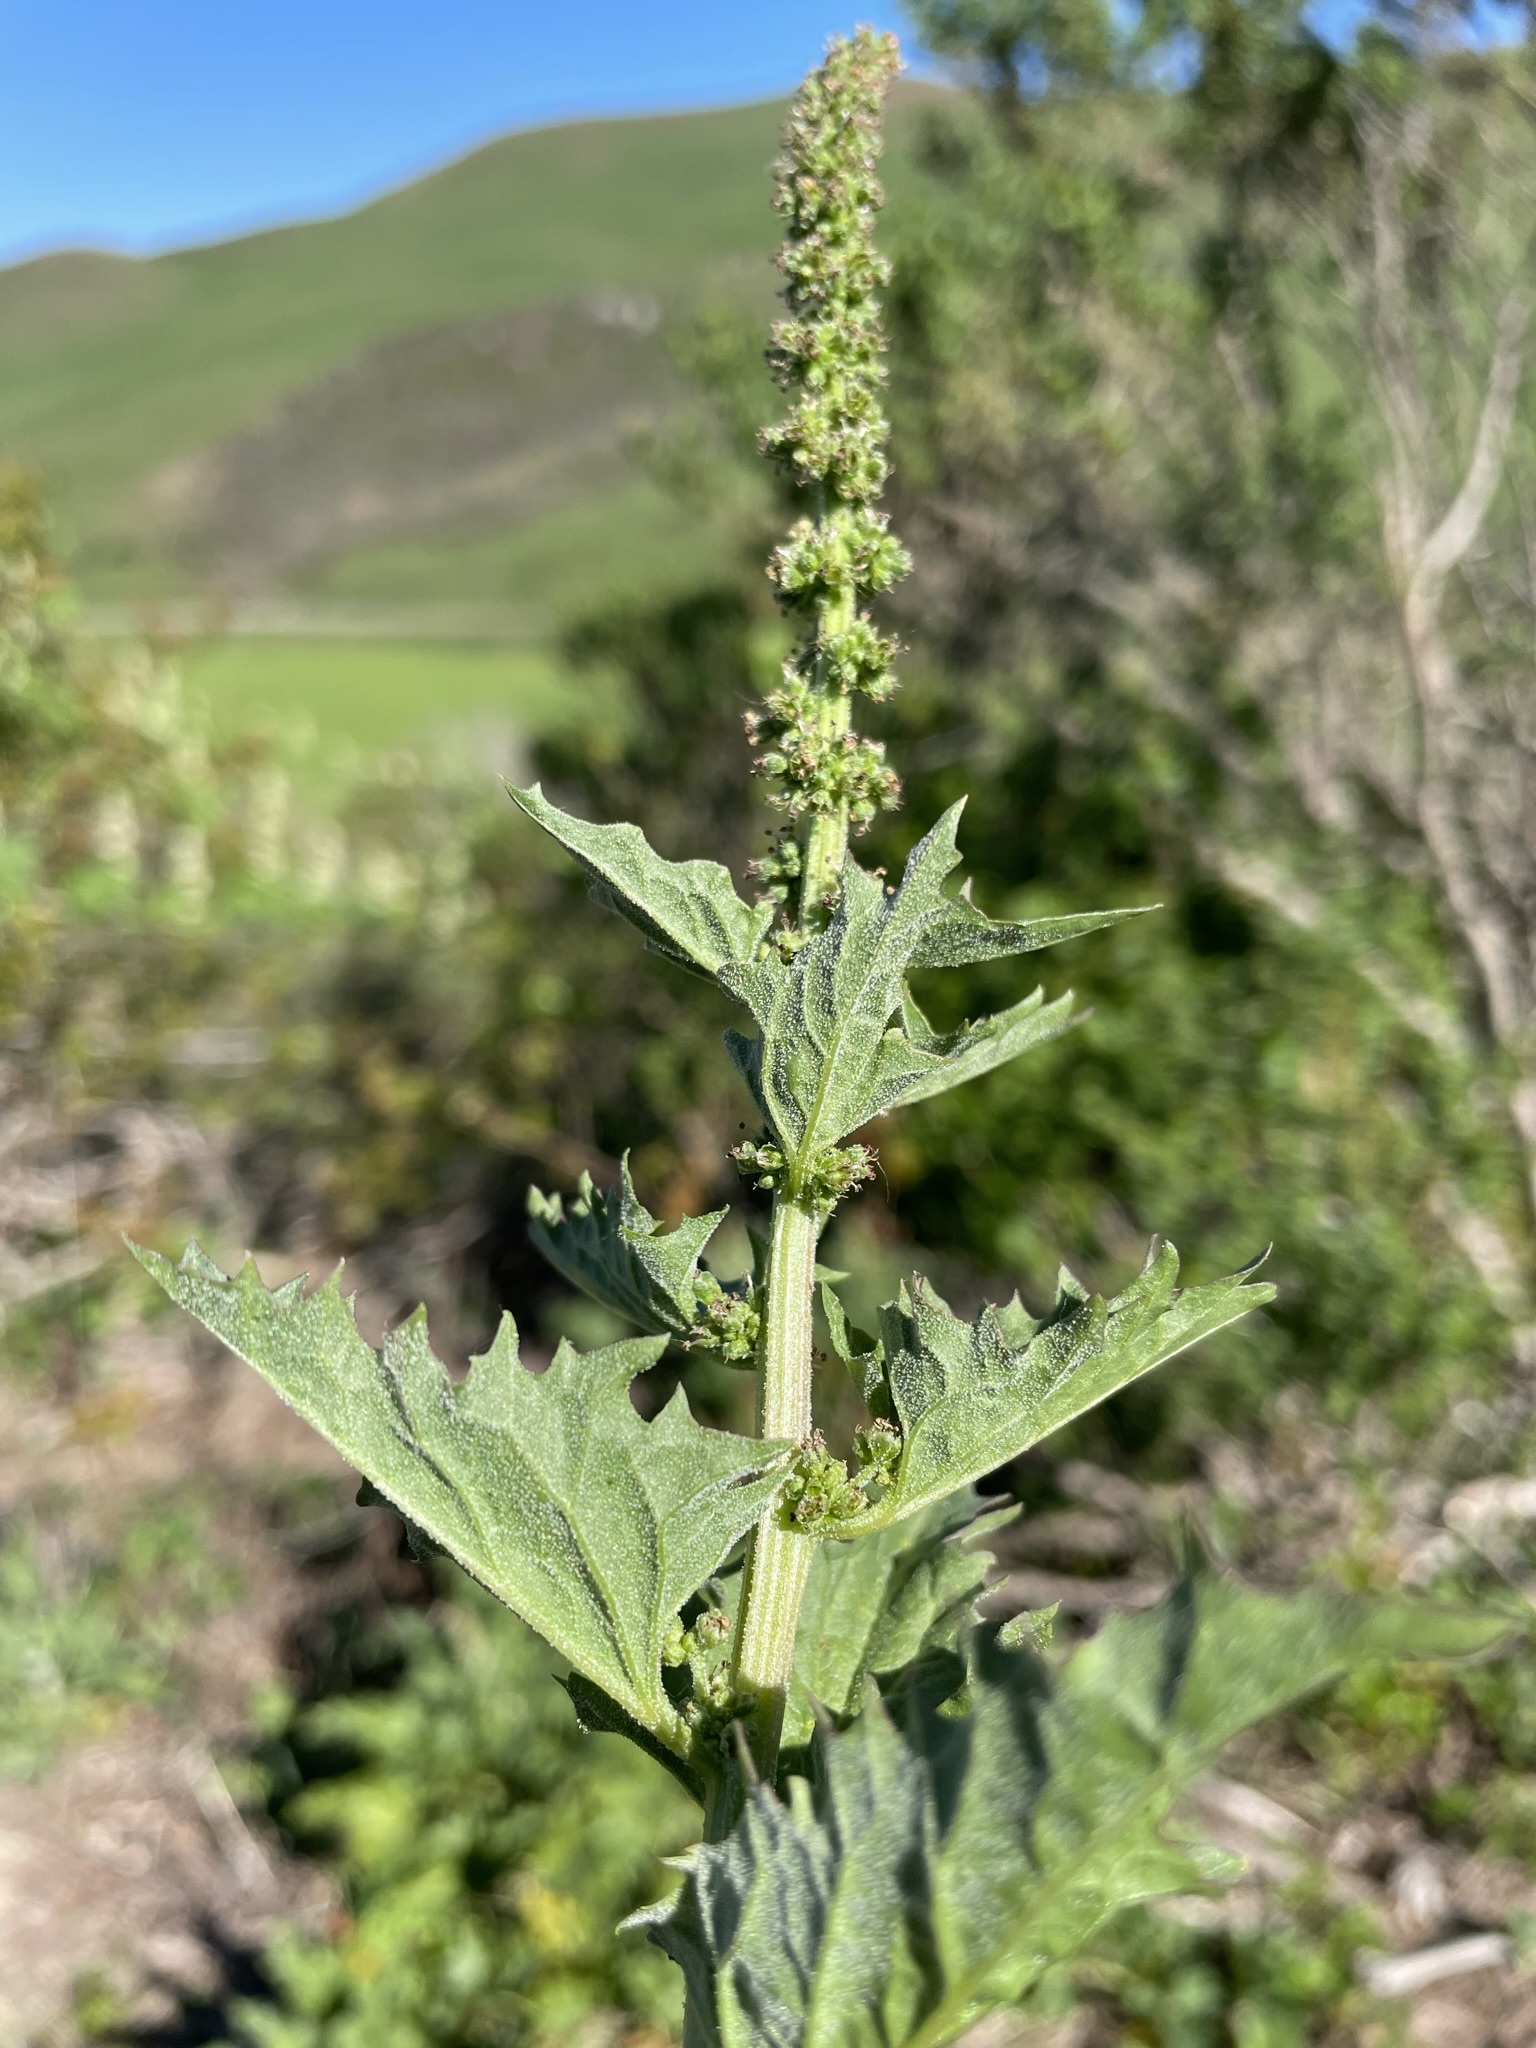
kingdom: Plantae
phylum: Tracheophyta
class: Magnoliopsida
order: Caryophyllales
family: Amaranthaceae
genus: Blitum
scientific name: Blitum californicum
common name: California goosefoot
